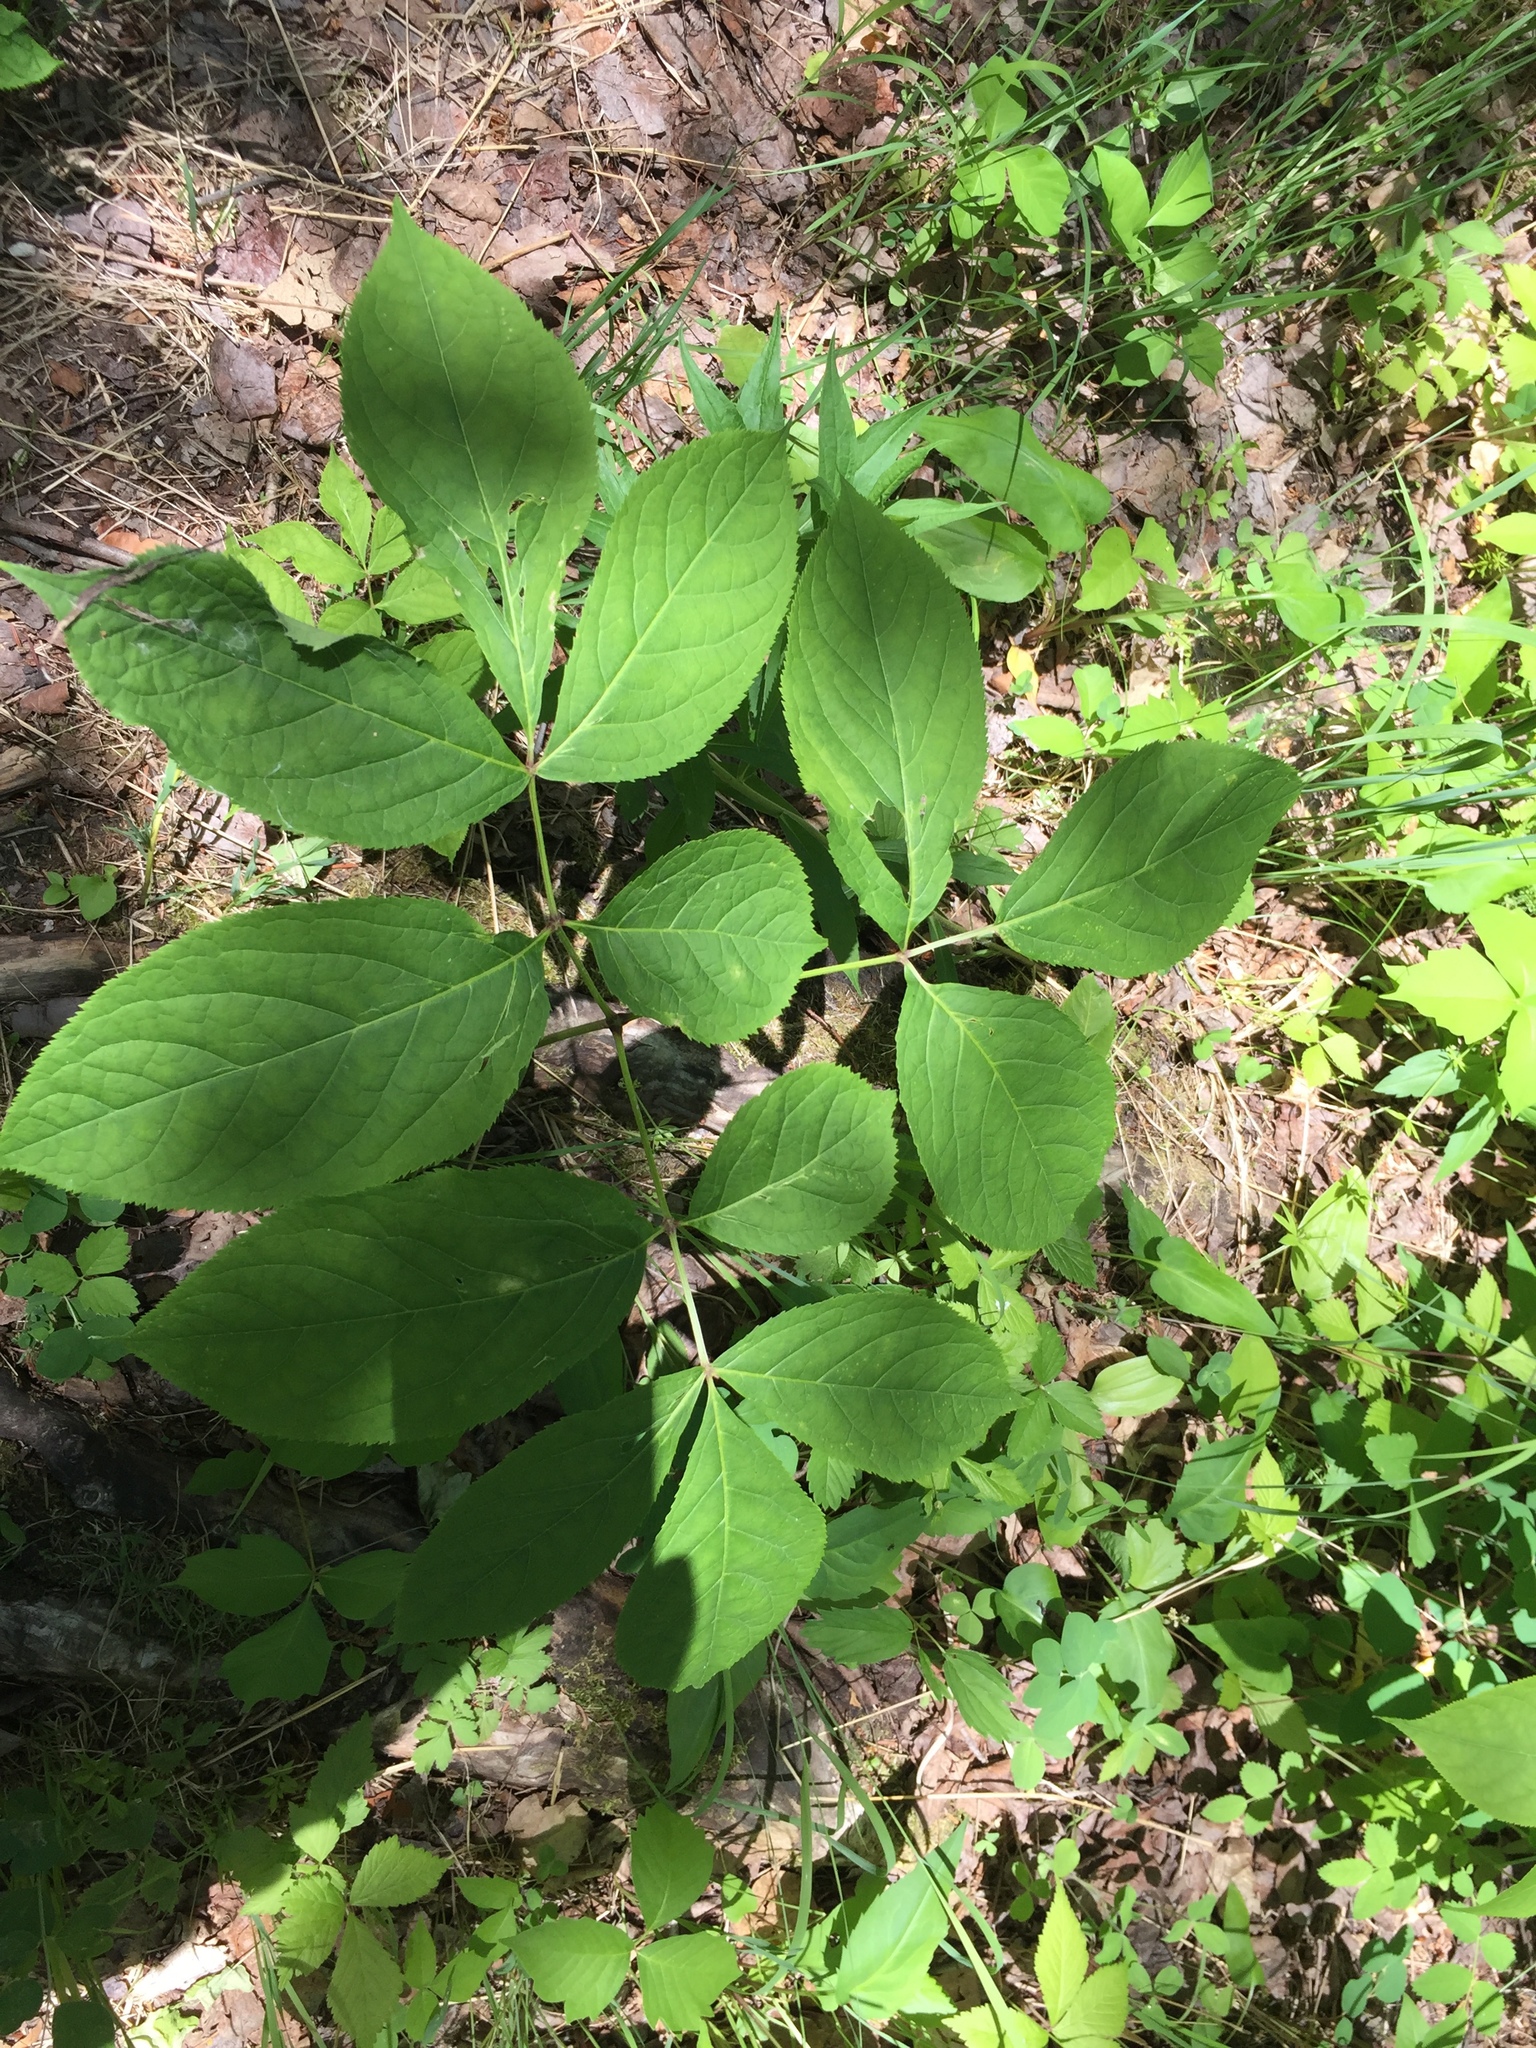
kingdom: Plantae
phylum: Tracheophyta
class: Magnoliopsida
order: Apiales
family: Araliaceae
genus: Aralia
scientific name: Aralia nudicaulis
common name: Wild sarsaparilla
